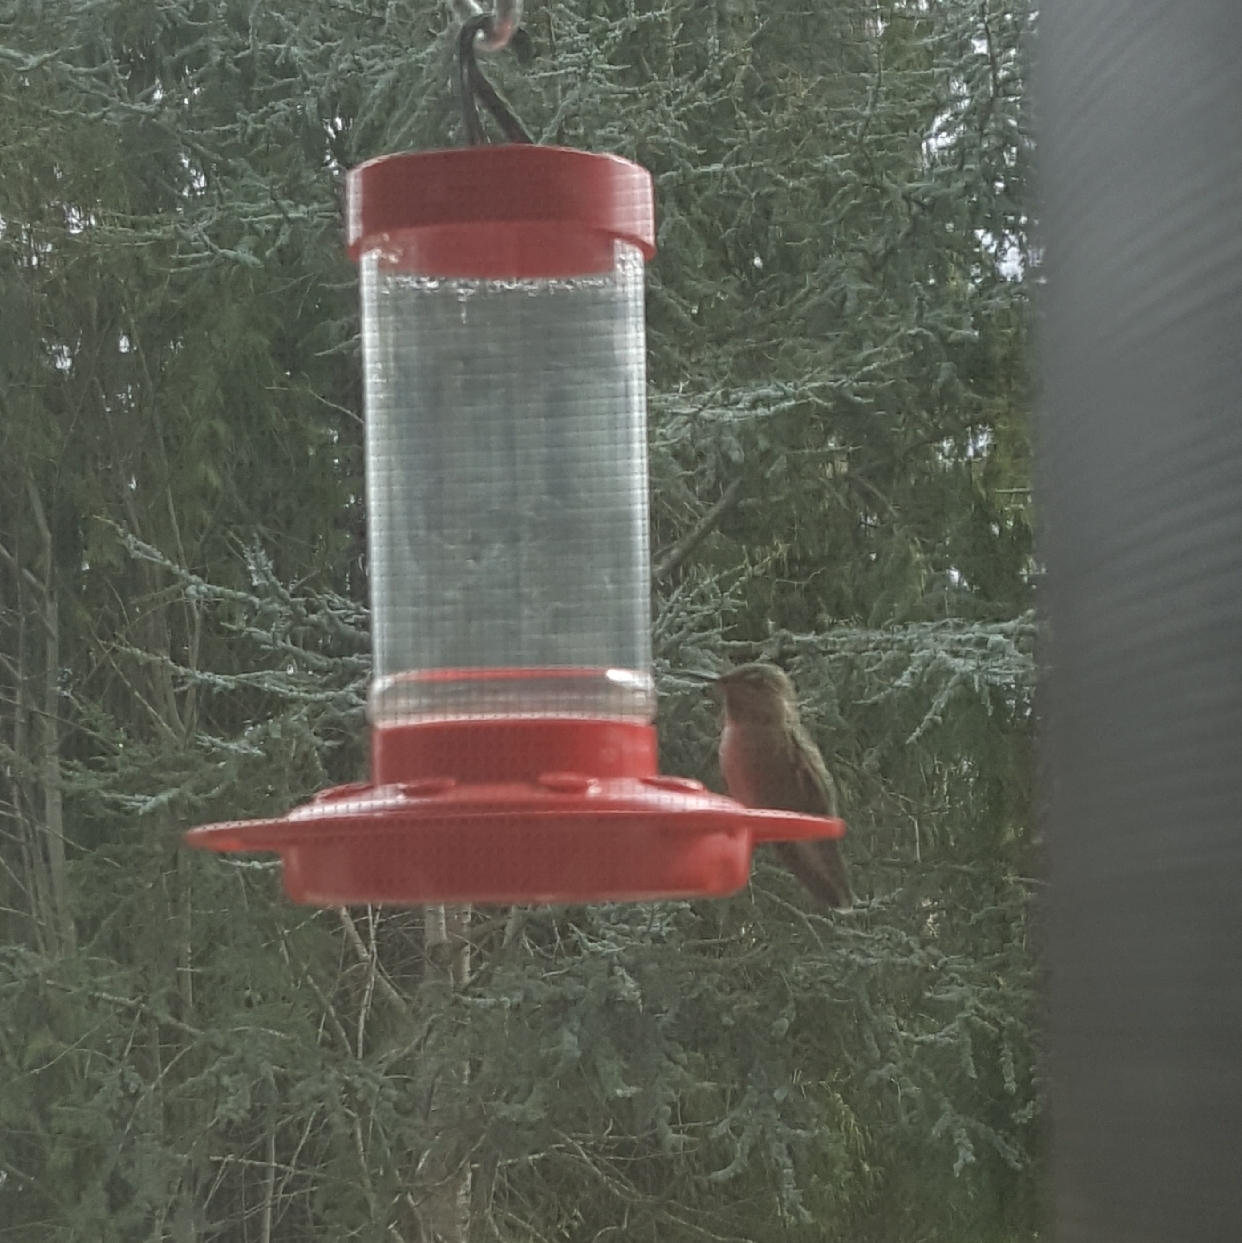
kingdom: Animalia
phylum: Chordata
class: Aves
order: Apodiformes
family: Trochilidae
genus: Calypte
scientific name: Calypte anna
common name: Anna's hummingbird
